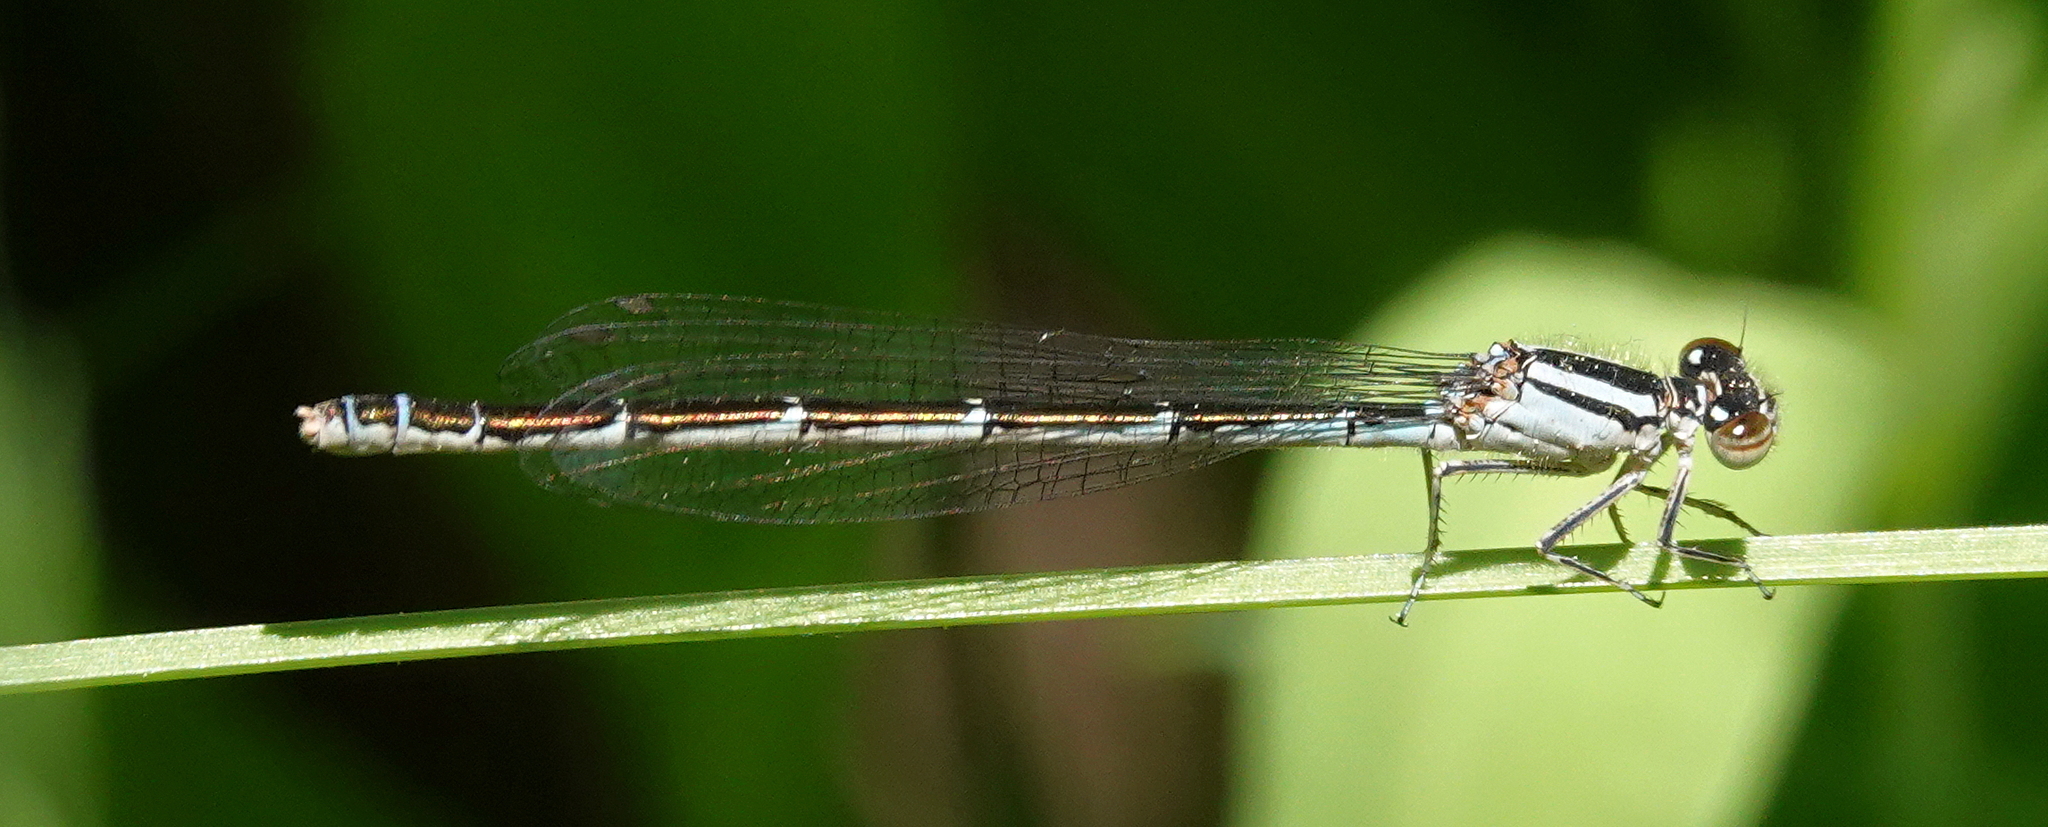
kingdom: Animalia
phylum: Arthropoda
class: Insecta
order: Odonata
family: Coenagrionidae
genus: Coenagrion
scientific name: Coenagrion resolutum
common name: Taiga bluet
